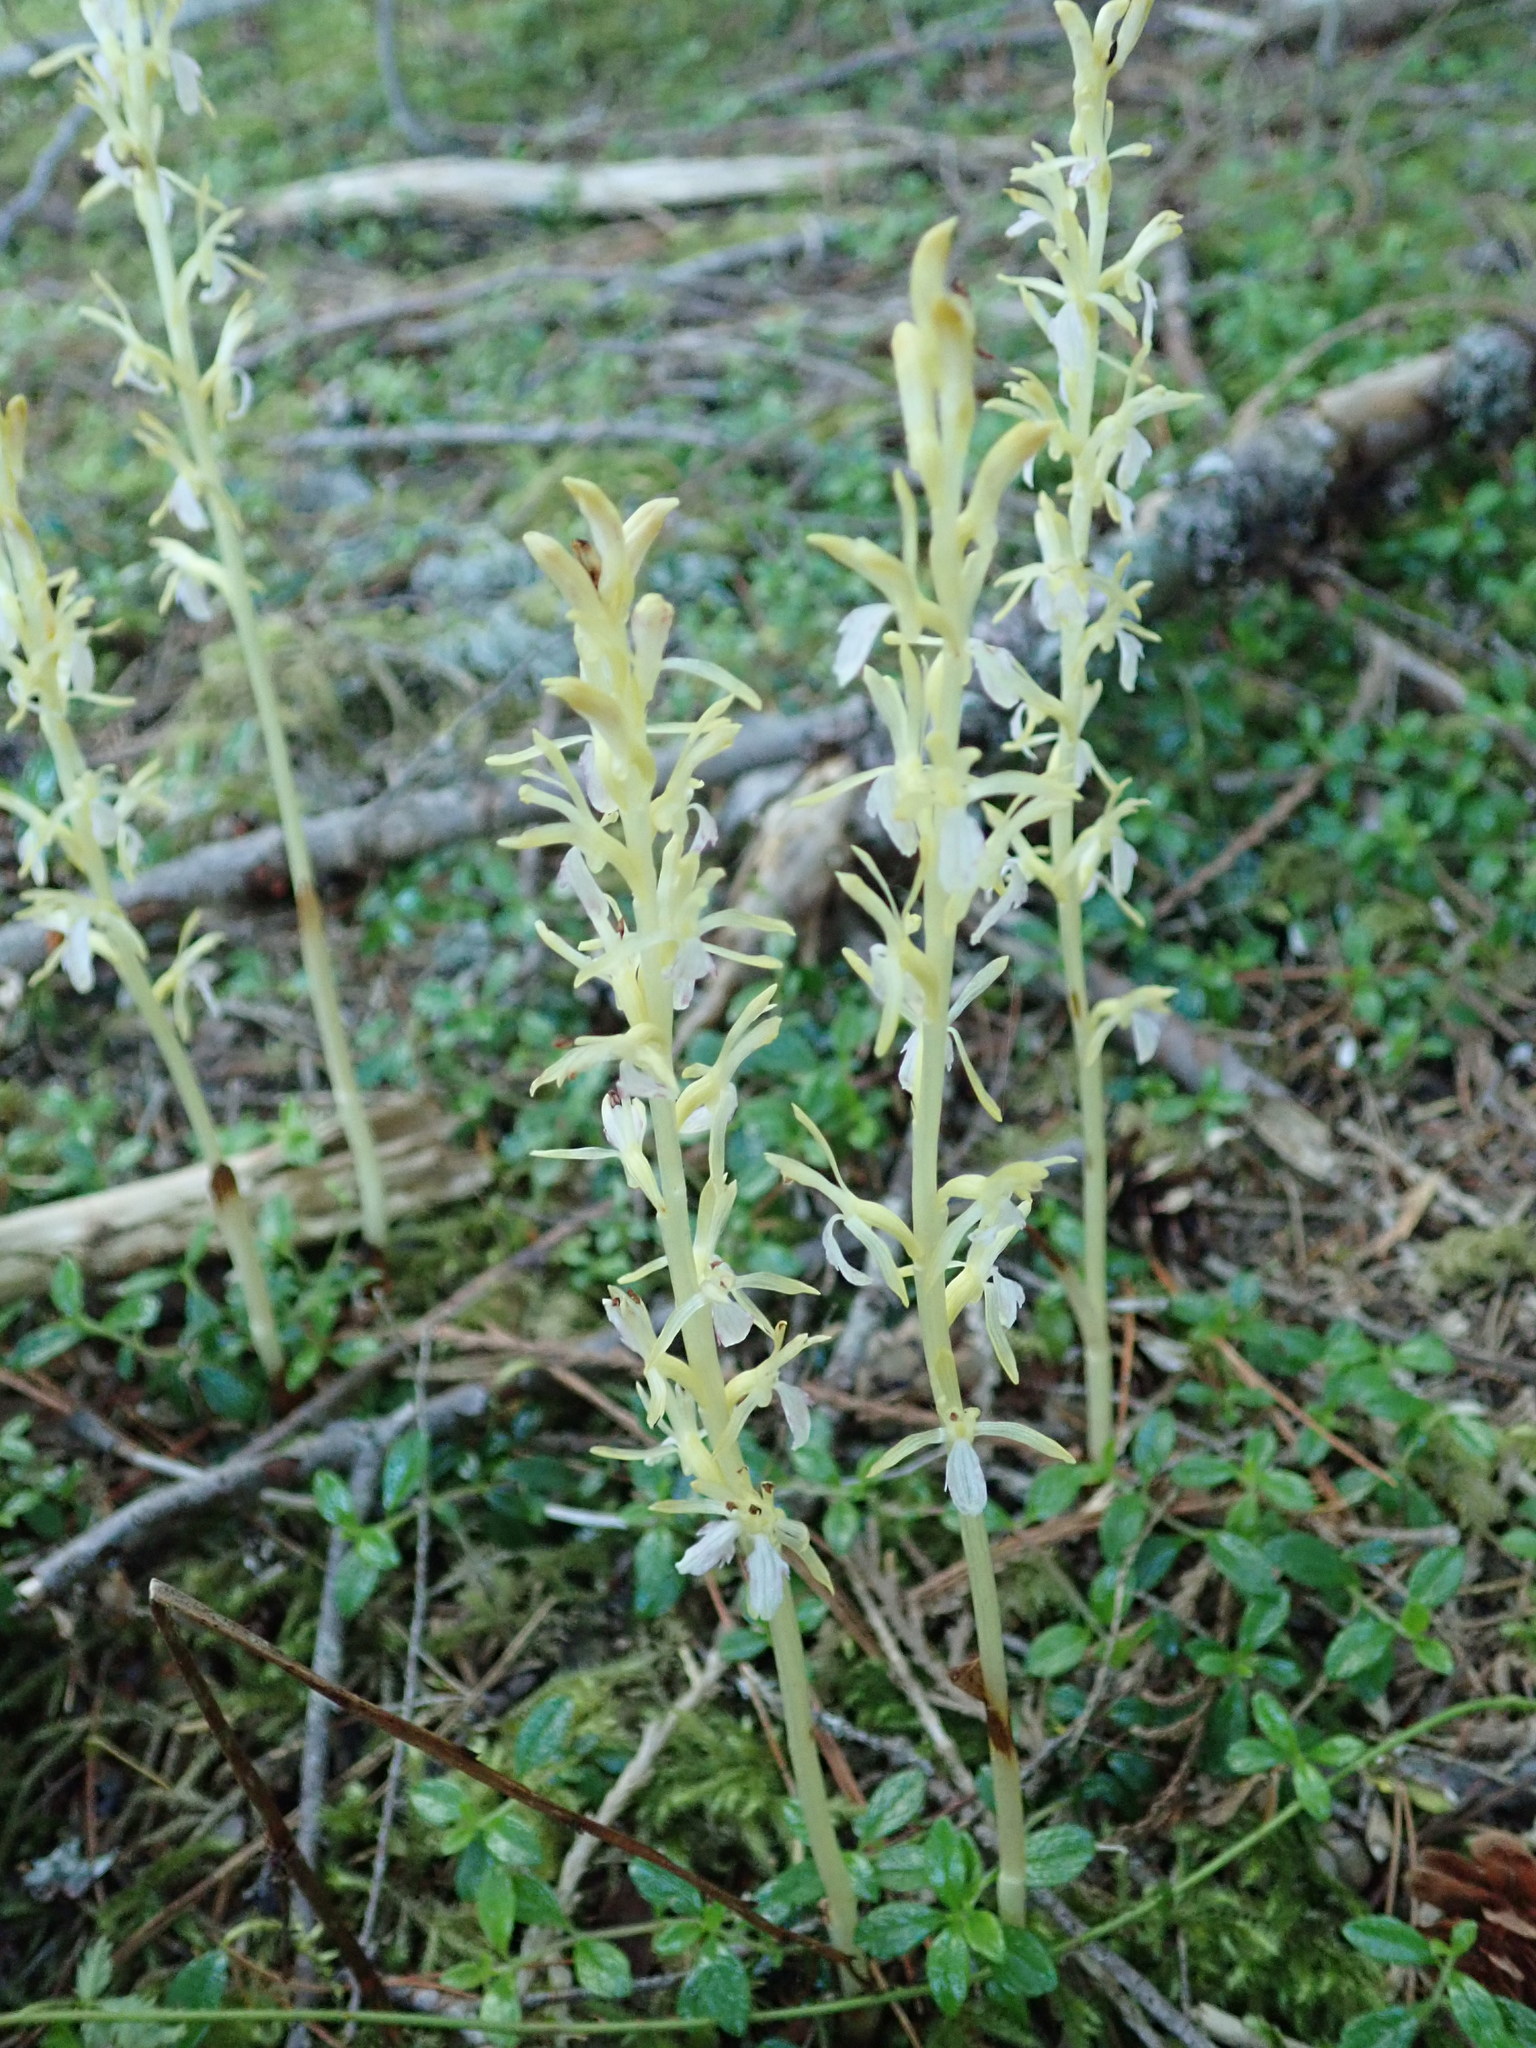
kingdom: Plantae
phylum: Tracheophyta
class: Liliopsida
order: Asparagales
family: Orchidaceae
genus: Corallorhiza
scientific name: Corallorhiza mertensiana
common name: Pacific coralroot
